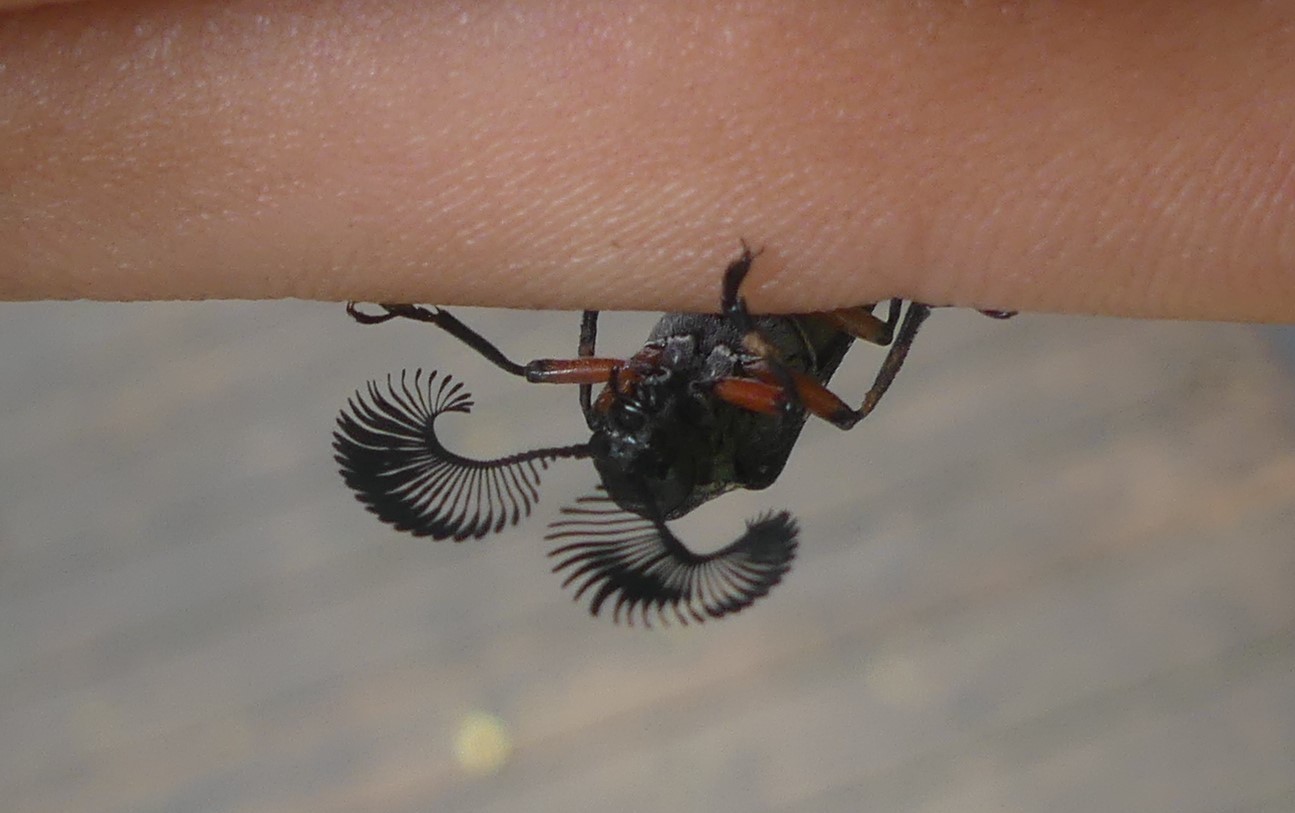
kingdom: Animalia
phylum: Arthropoda
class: Insecta
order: Coleoptera
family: Rhipiceridae
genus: Rhipicera
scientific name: Rhipicera femorata
